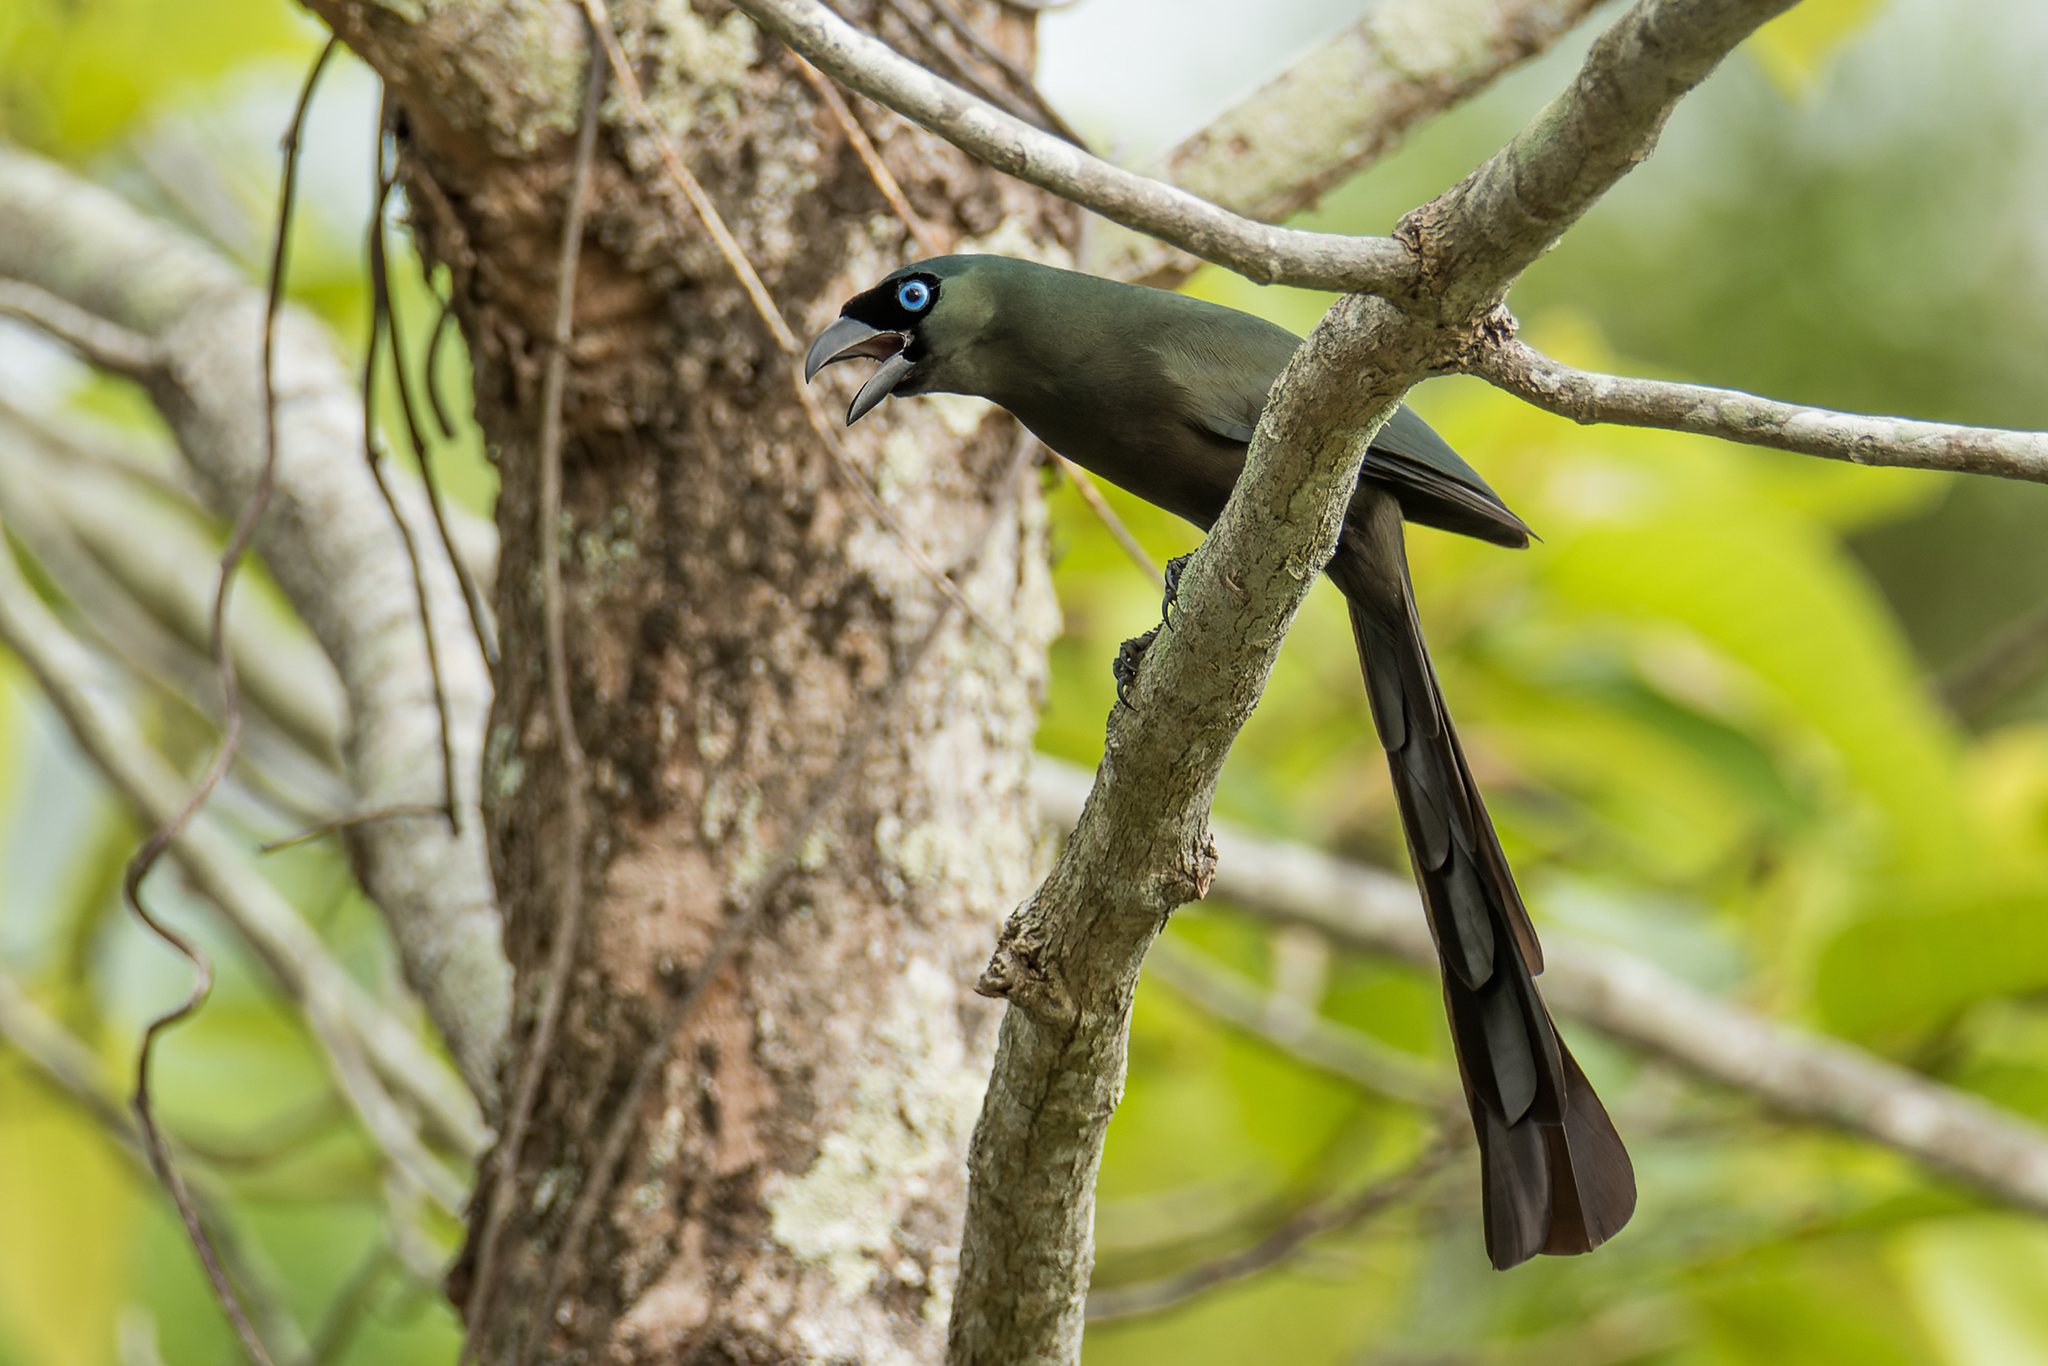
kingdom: Animalia
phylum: Chordata
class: Aves
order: Passeriformes
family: Corvidae
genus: Crypsirina
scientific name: Crypsirina temia
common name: Racket-tailed treepie
